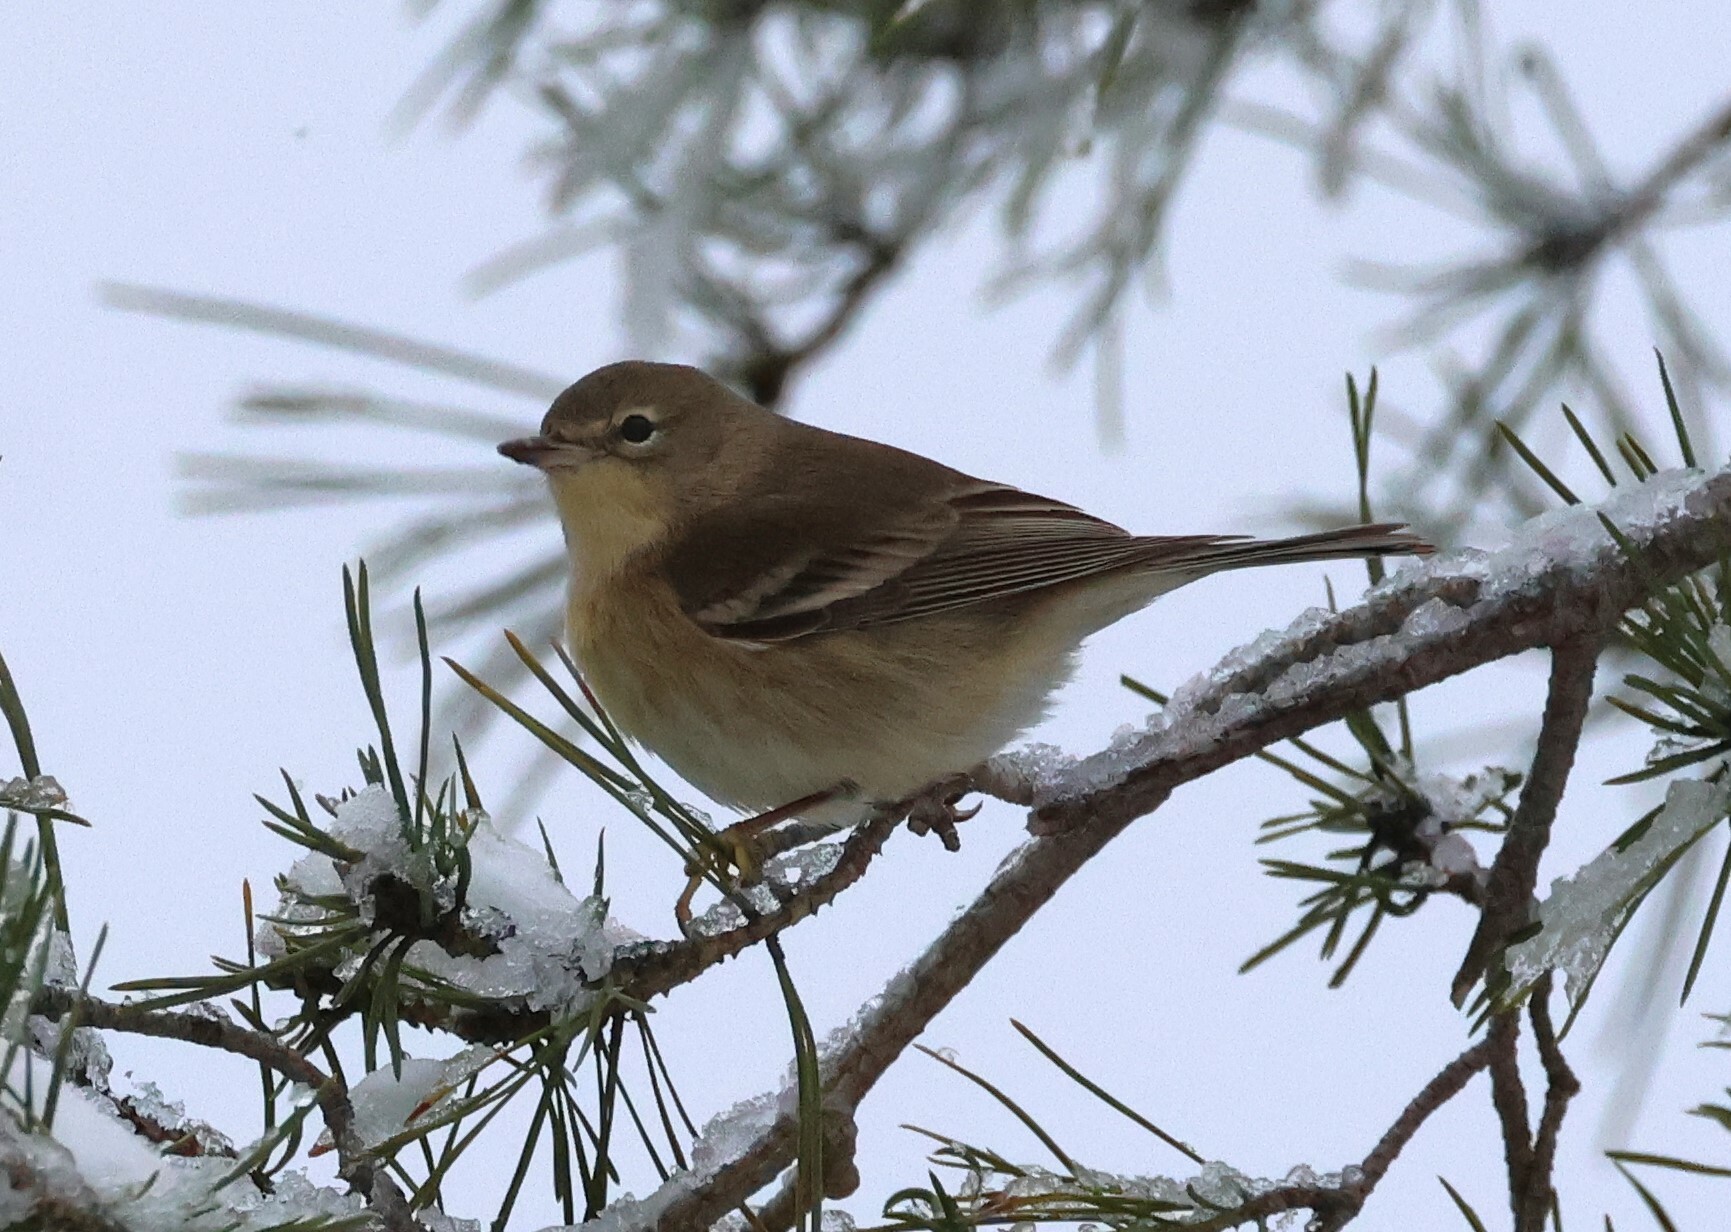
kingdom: Animalia
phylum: Chordata
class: Aves
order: Passeriformes
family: Parulidae
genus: Setophaga
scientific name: Setophaga pinus
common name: Pine warbler
